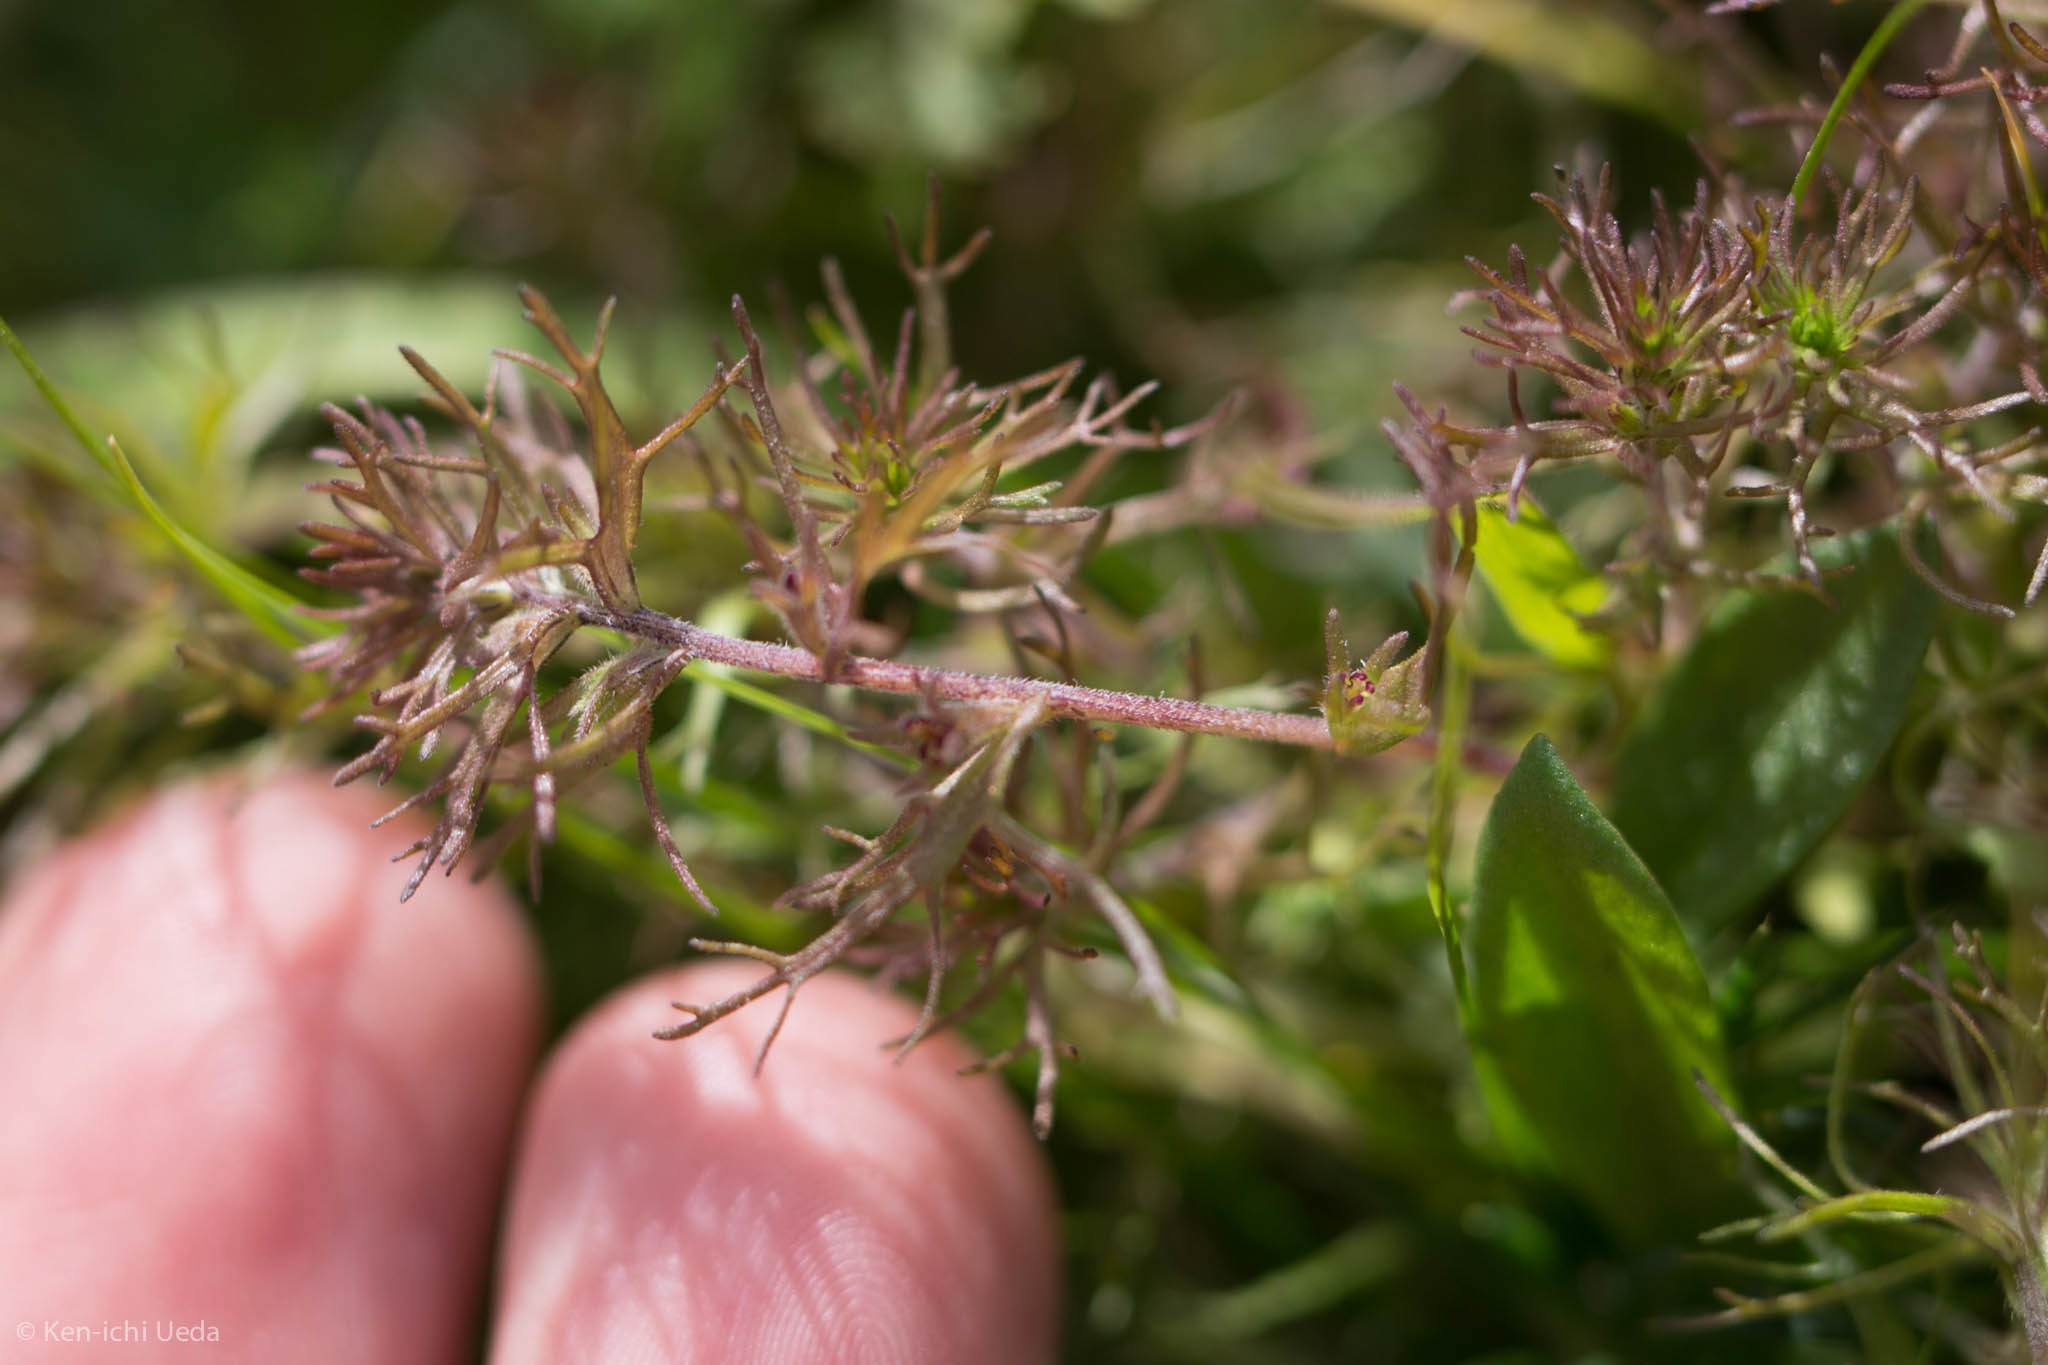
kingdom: Plantae
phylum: Tracheophyta
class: Magnoliopsida
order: Lamiales
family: Orobanchaceae
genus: Triphysaria
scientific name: Triphysaria pusilla
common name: Dwarf false owl-clover
